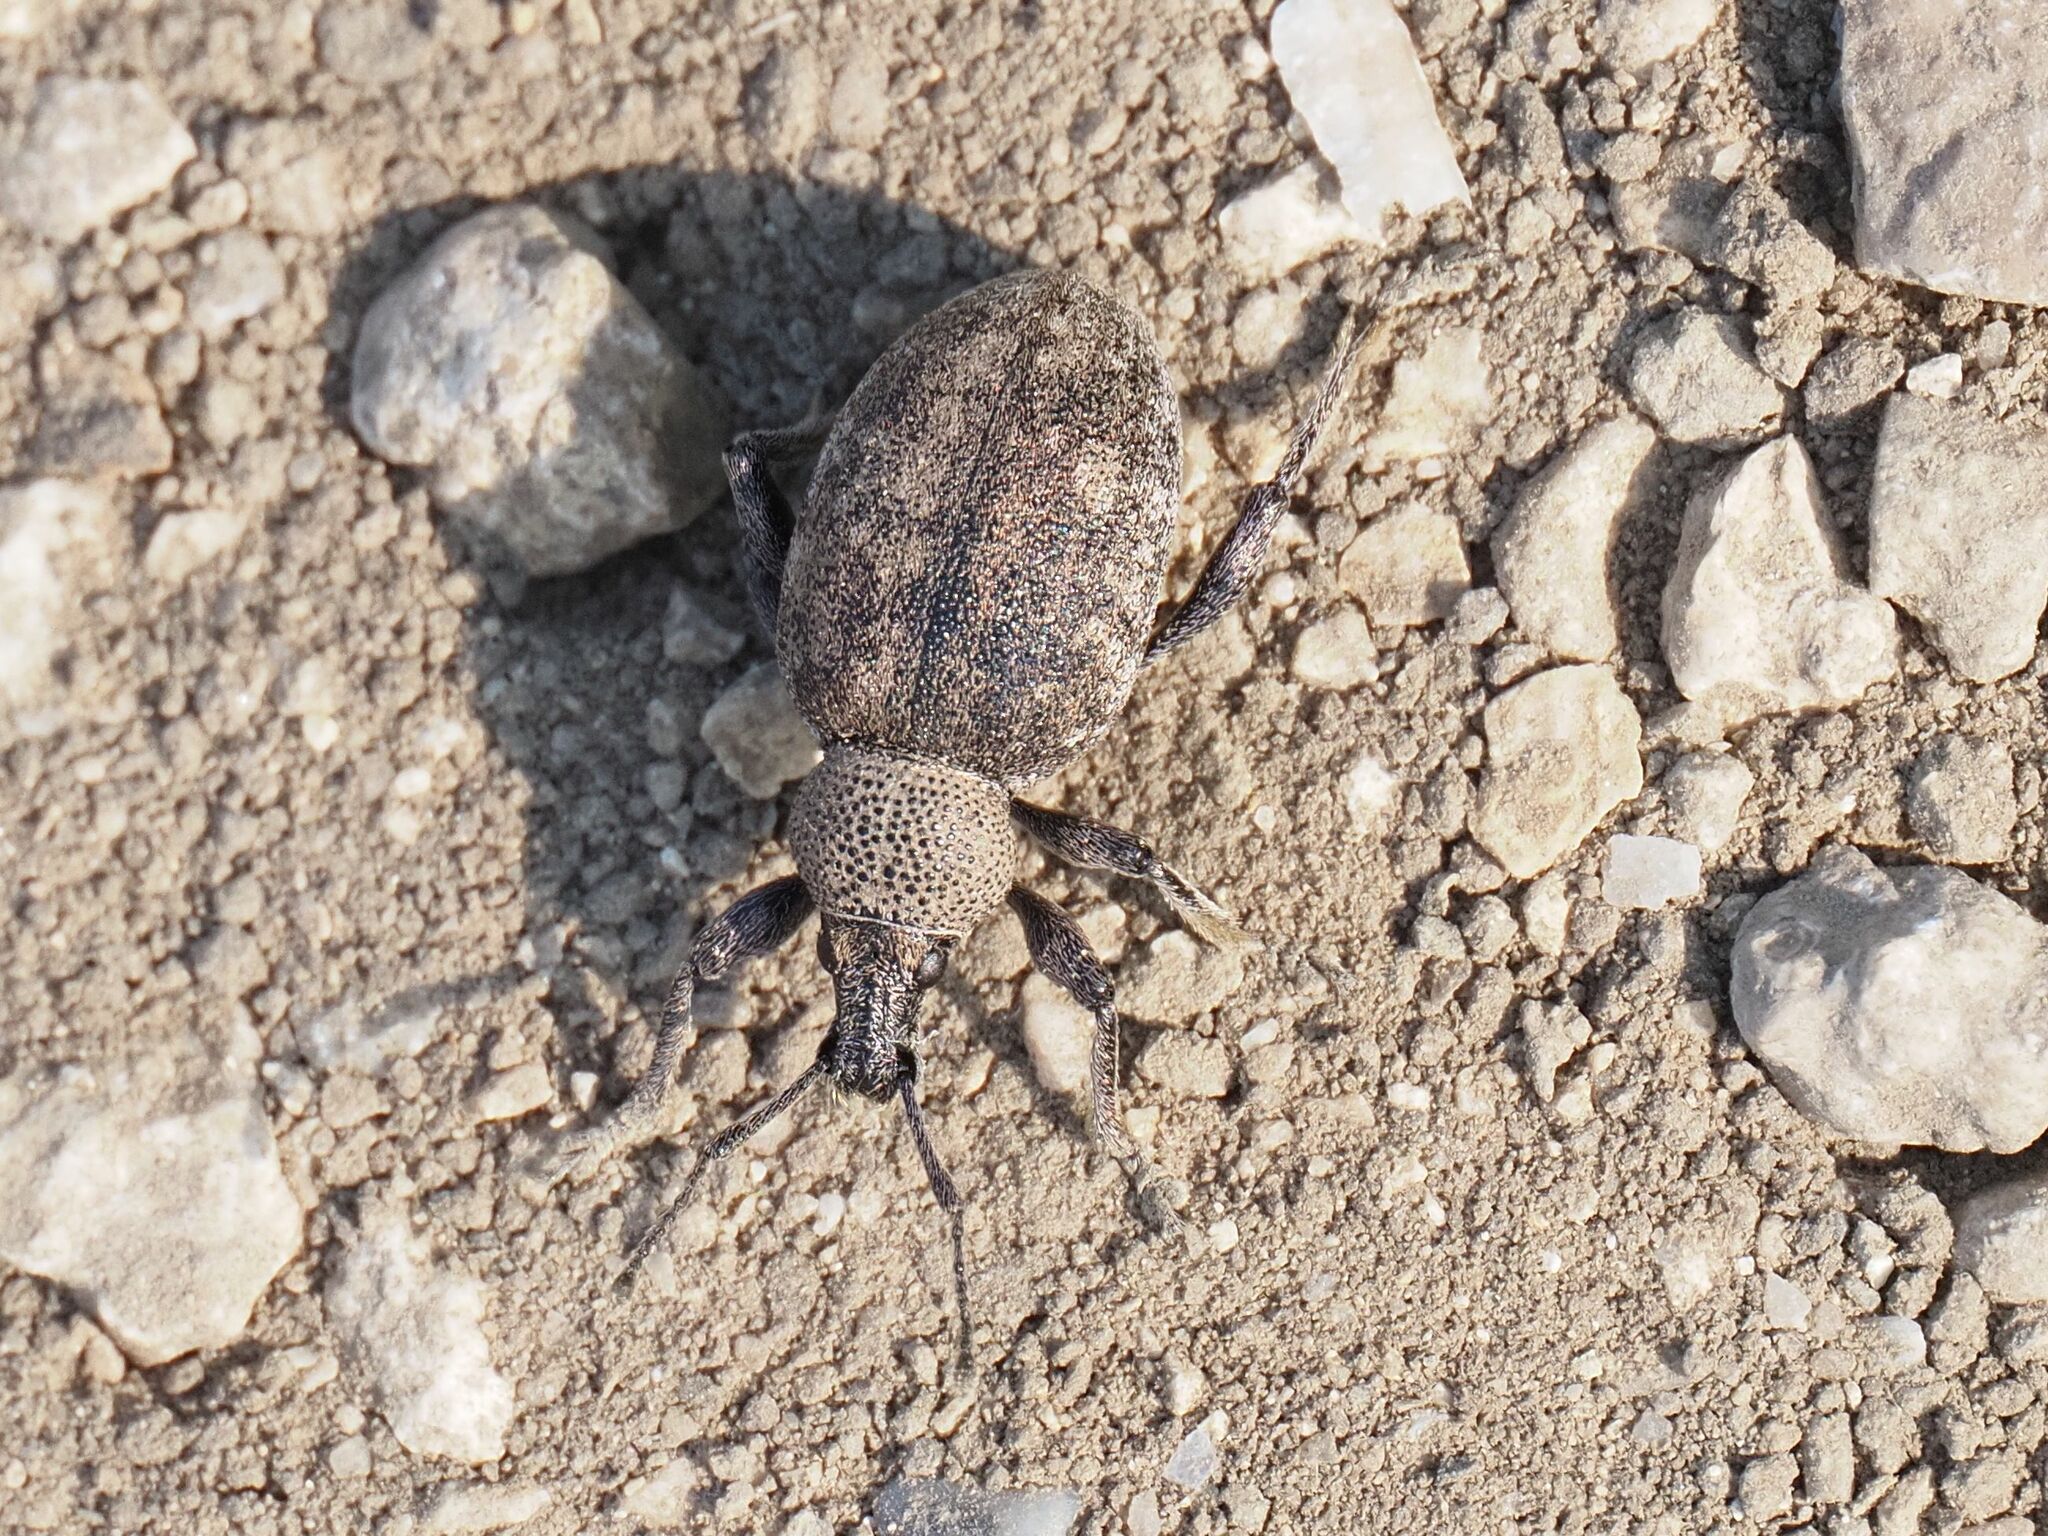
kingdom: Animalia
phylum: Arthropoda
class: Insecta
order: Coleoptera
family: Curculionidae
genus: Otiorhynchus
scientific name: Otiorhynchus ligustici
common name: Weevil
